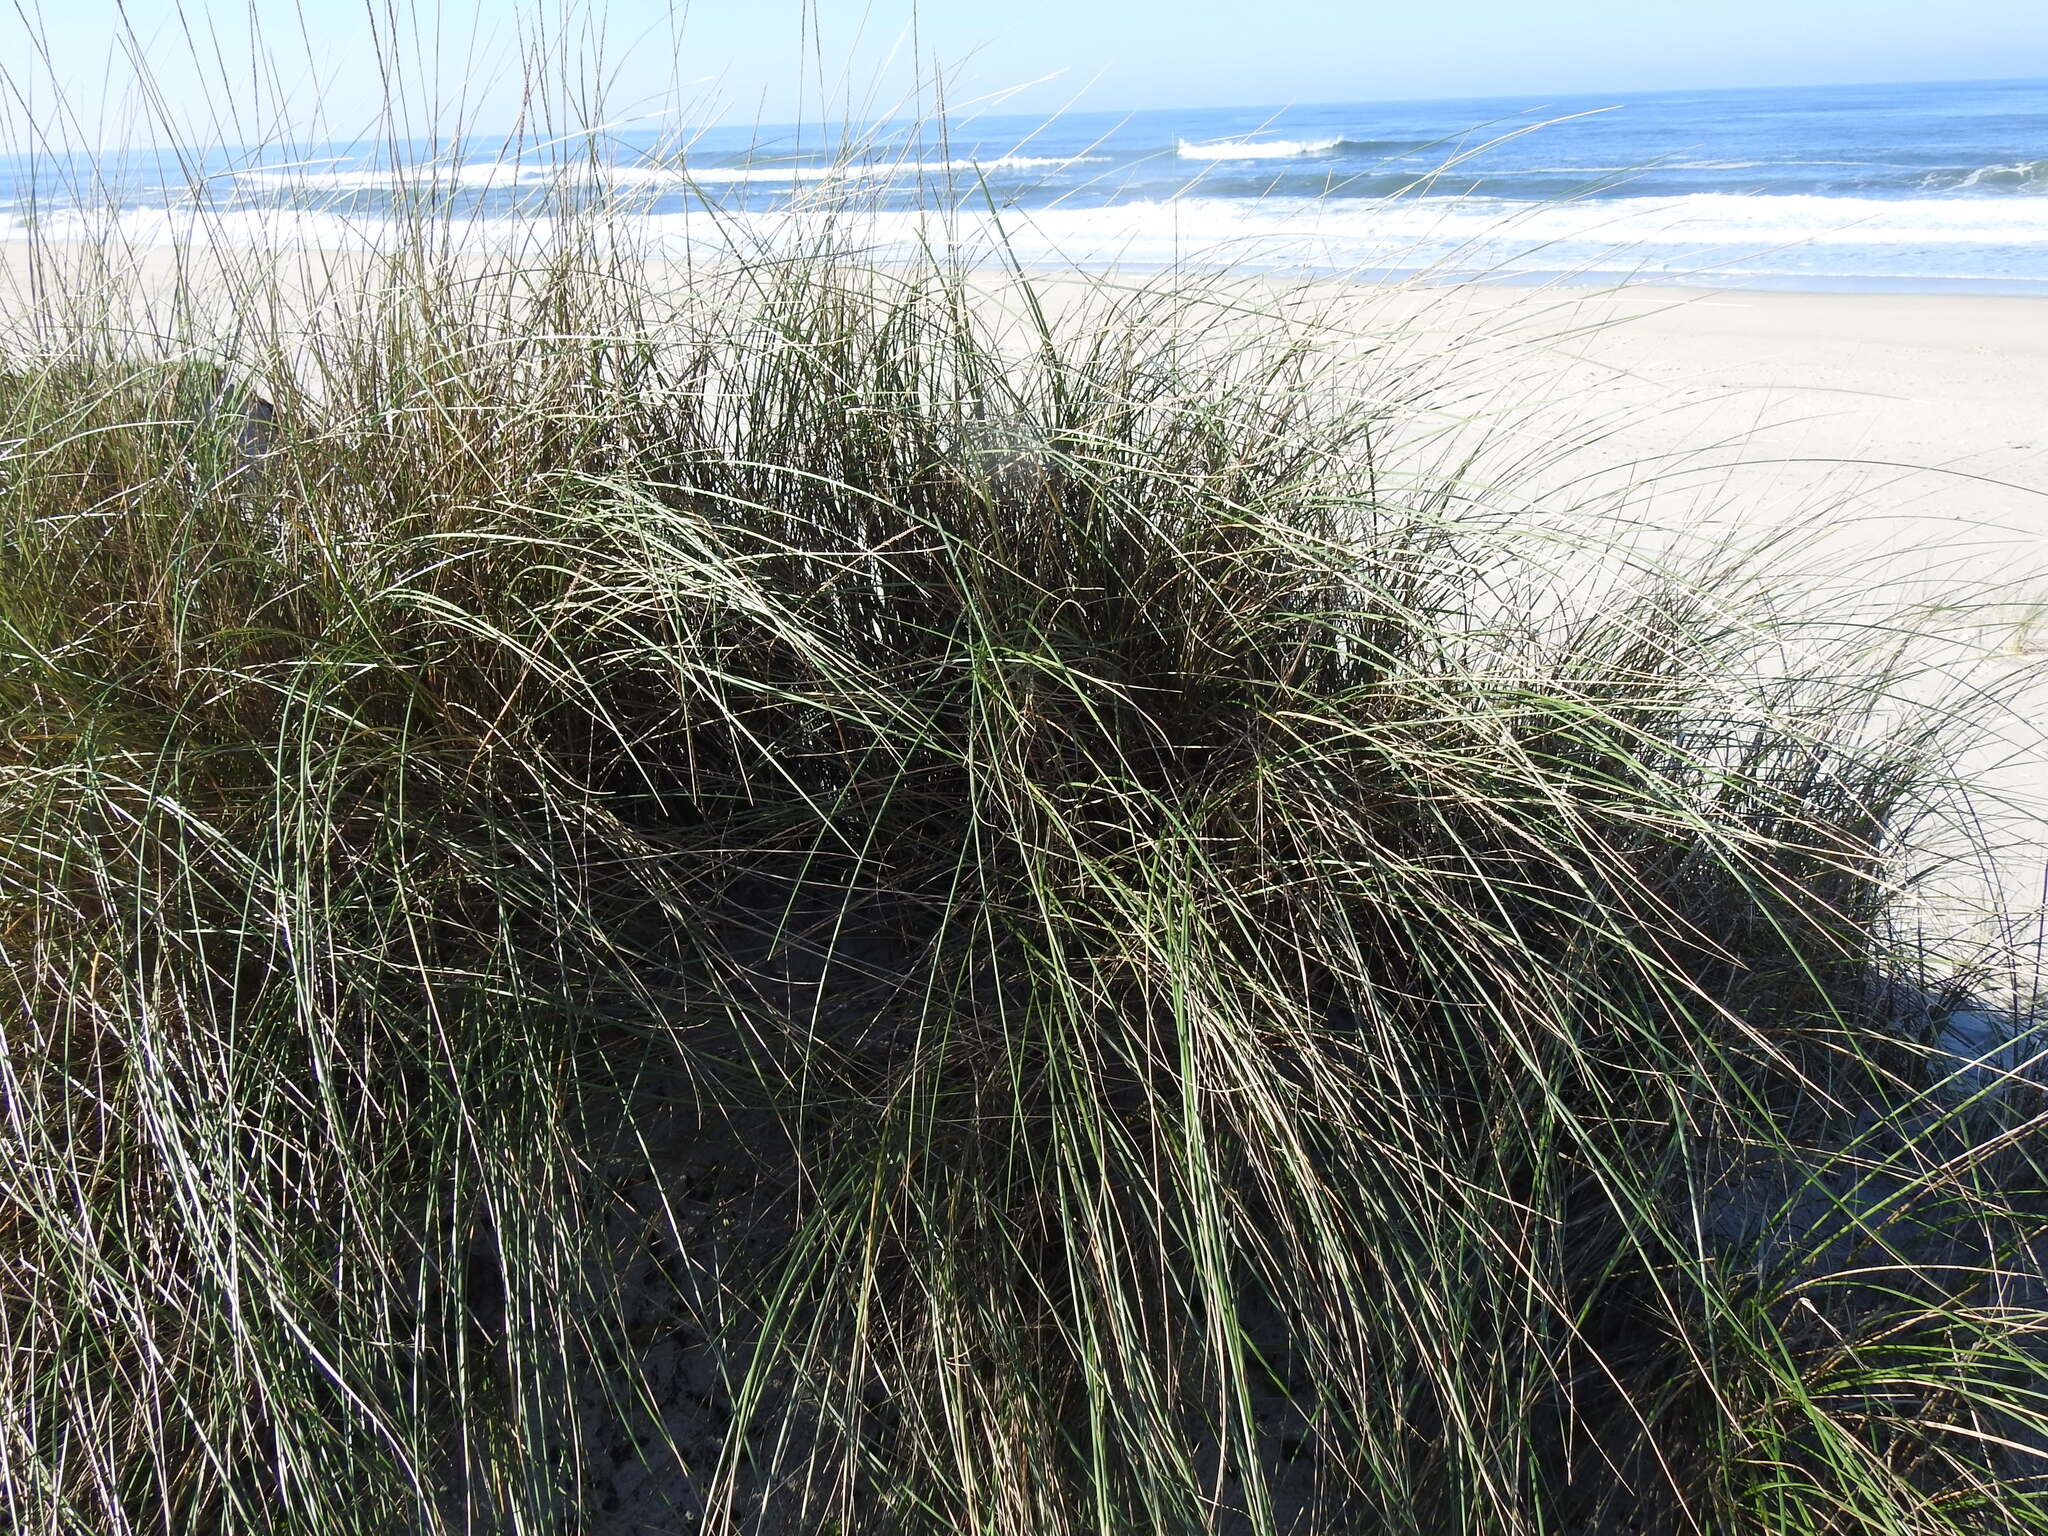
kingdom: Plantae
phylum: Tracheophyta
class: Liliopsida
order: Poales
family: Poaceae
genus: Calamagrostis
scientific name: Calamagrostis arenaria
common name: European beachgrass
